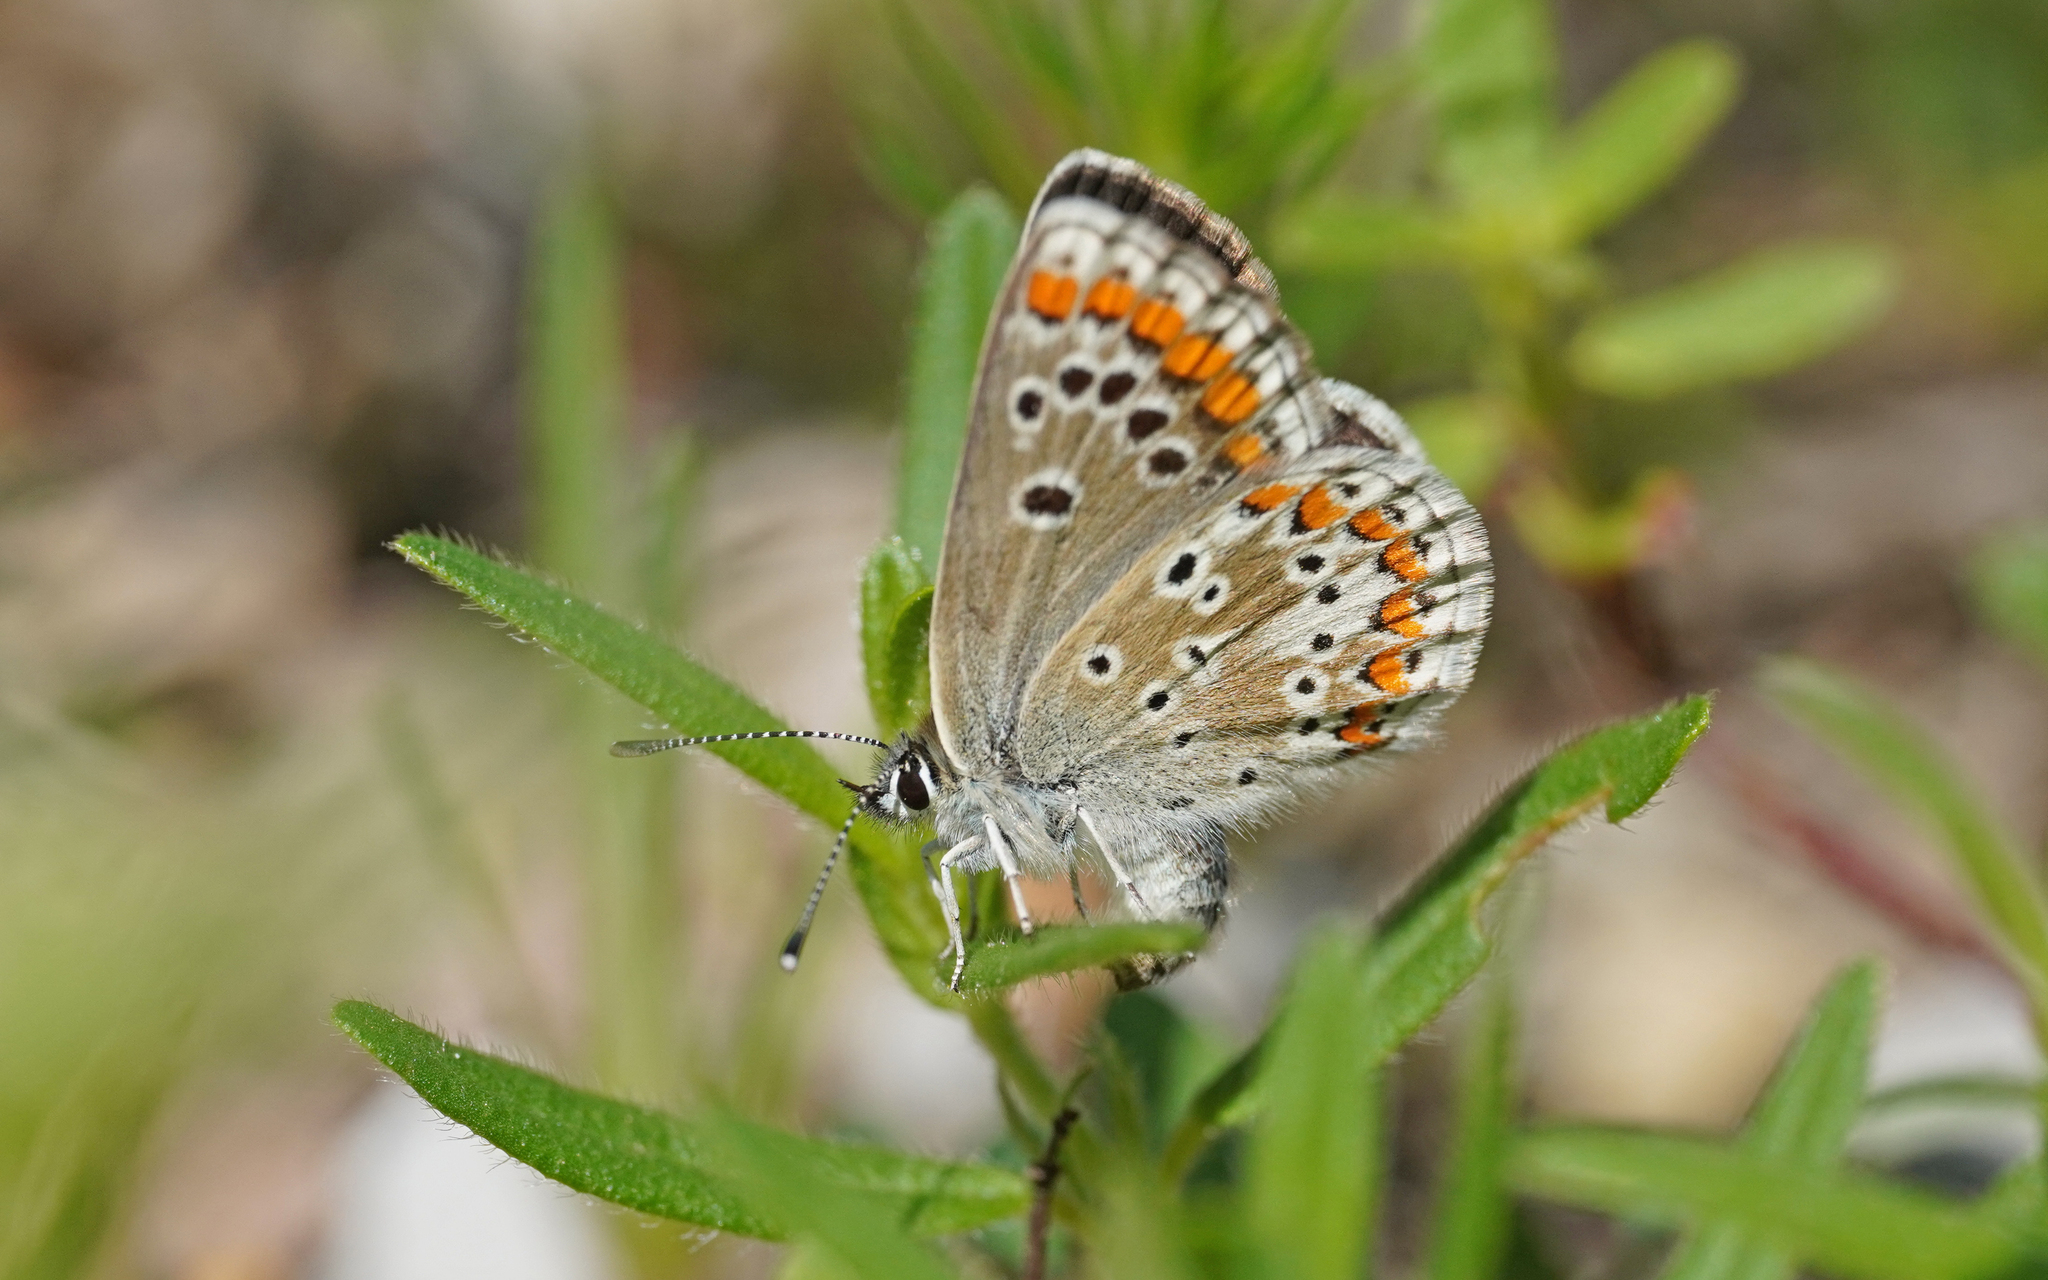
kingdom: Animalia
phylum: Arthropoda
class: Insecta
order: Lepidoptera
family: Lycaenidae
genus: Aricia
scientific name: Aricia agestis
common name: Brown argus
